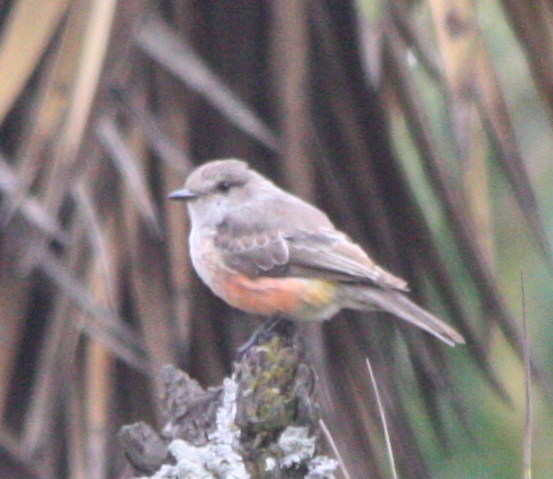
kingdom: Animalia
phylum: Chordata
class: Aves
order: Passeriformes
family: Tyrannidae
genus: Pyrocephalus
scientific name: Pyrocephalus rubinus
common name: Vermilion flycatcher
